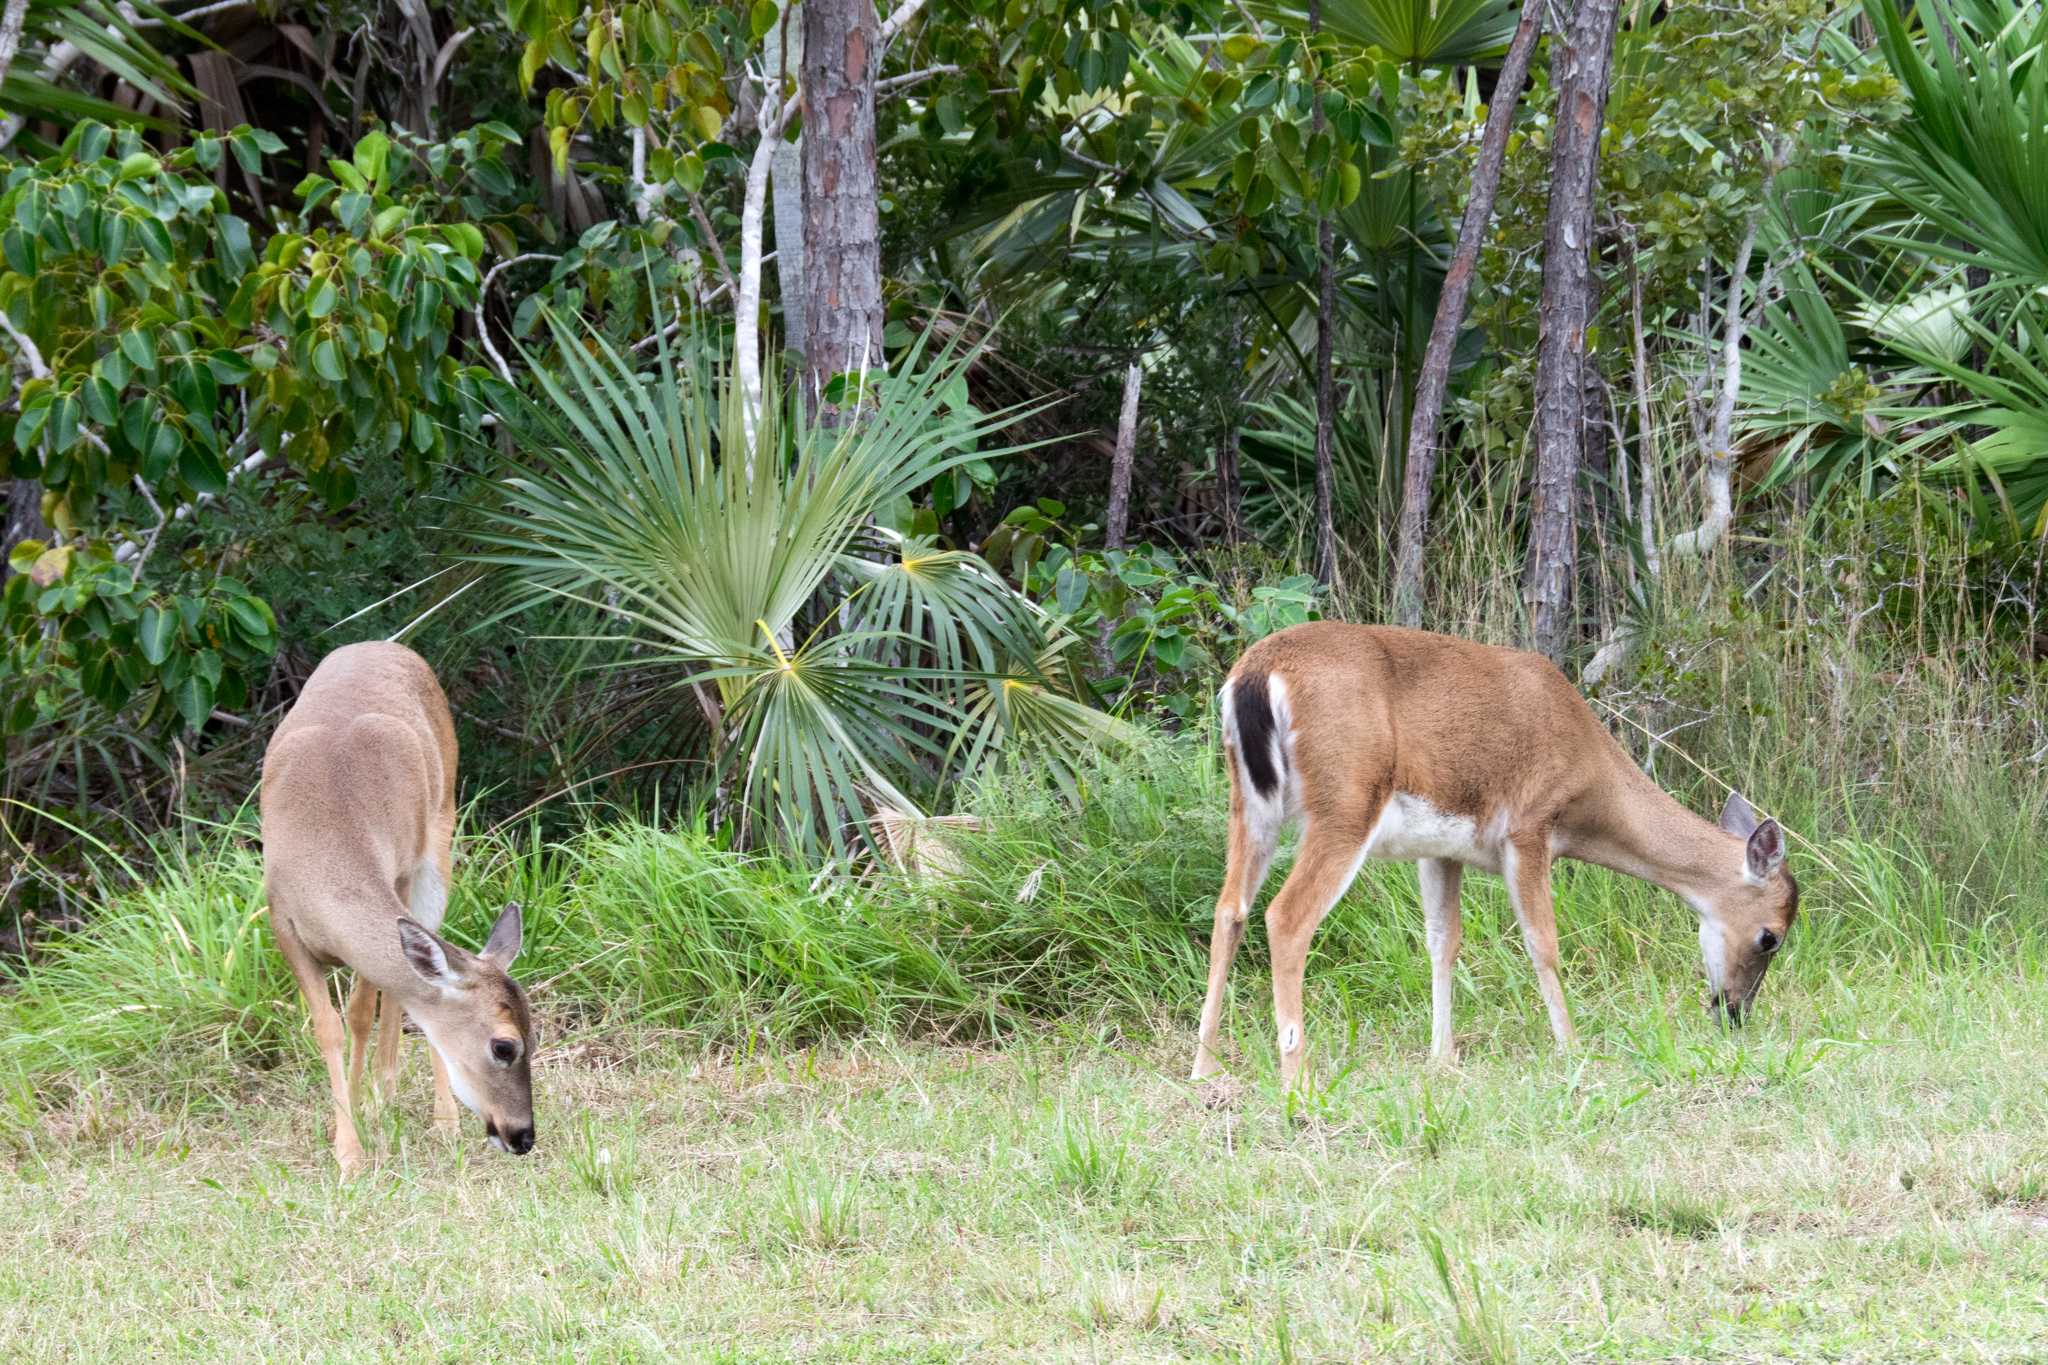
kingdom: Animalia
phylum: Chordata
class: Mammalia
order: Artiodactyla
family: Cervidae
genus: Odocoileus
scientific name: Odocoileus virginianus
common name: White-tailed deer
